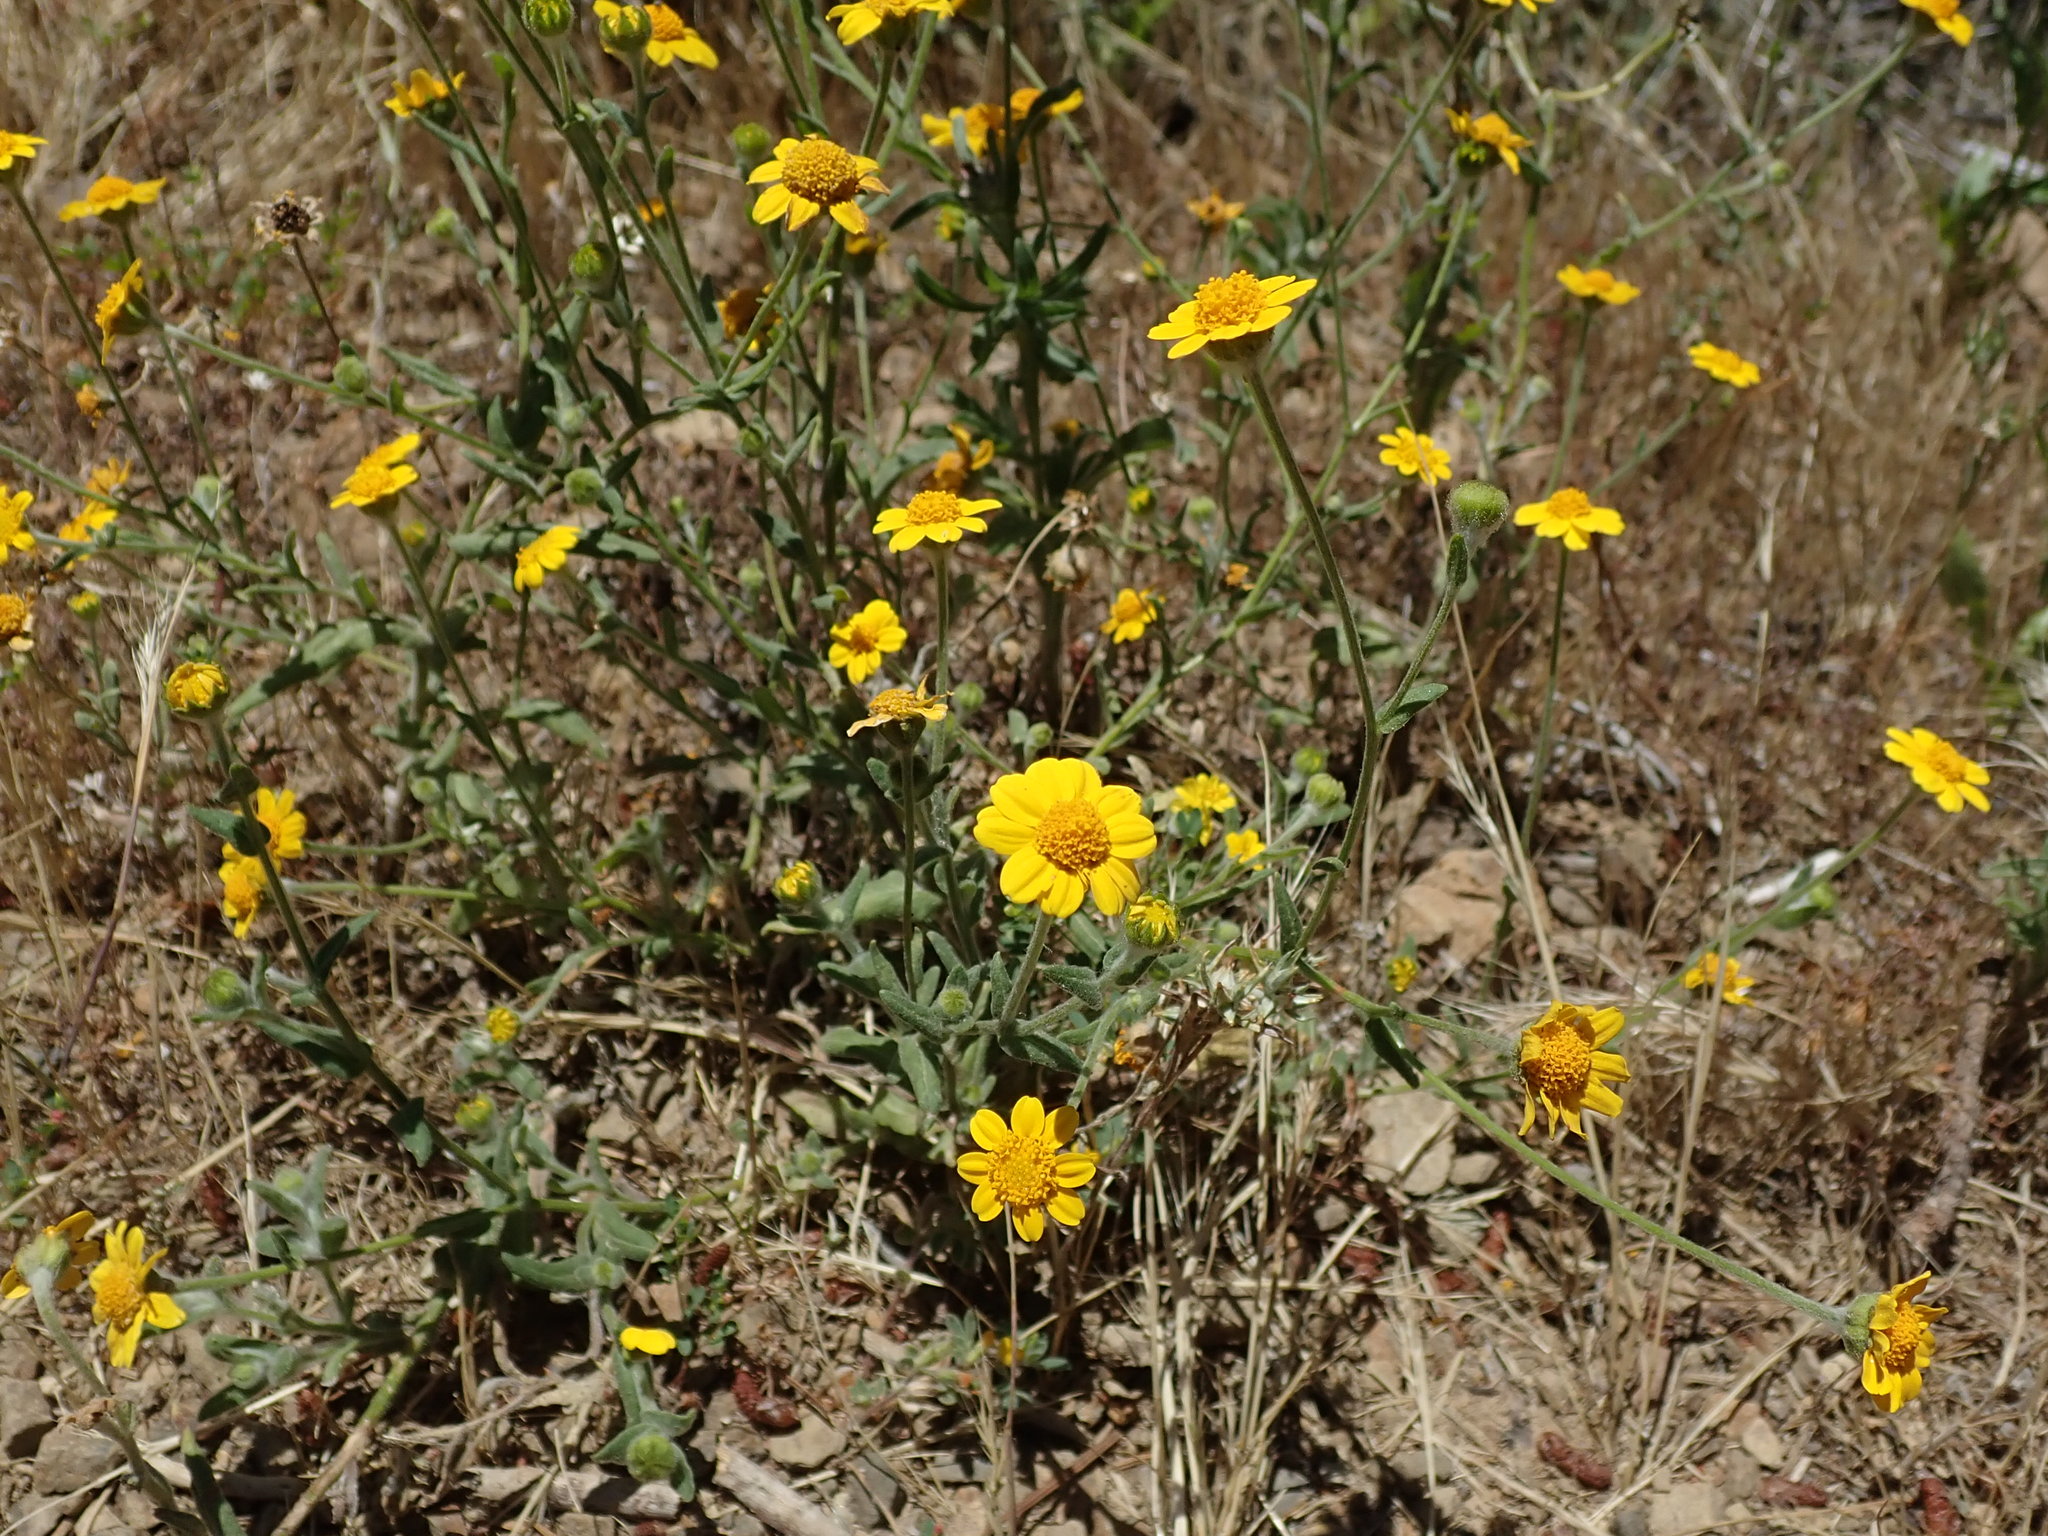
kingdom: Plantae
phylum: Tracheophyta
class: Magnoliopsida
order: Asterales
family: Asteraceae
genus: Monolopia
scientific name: Monolopia gracilens
